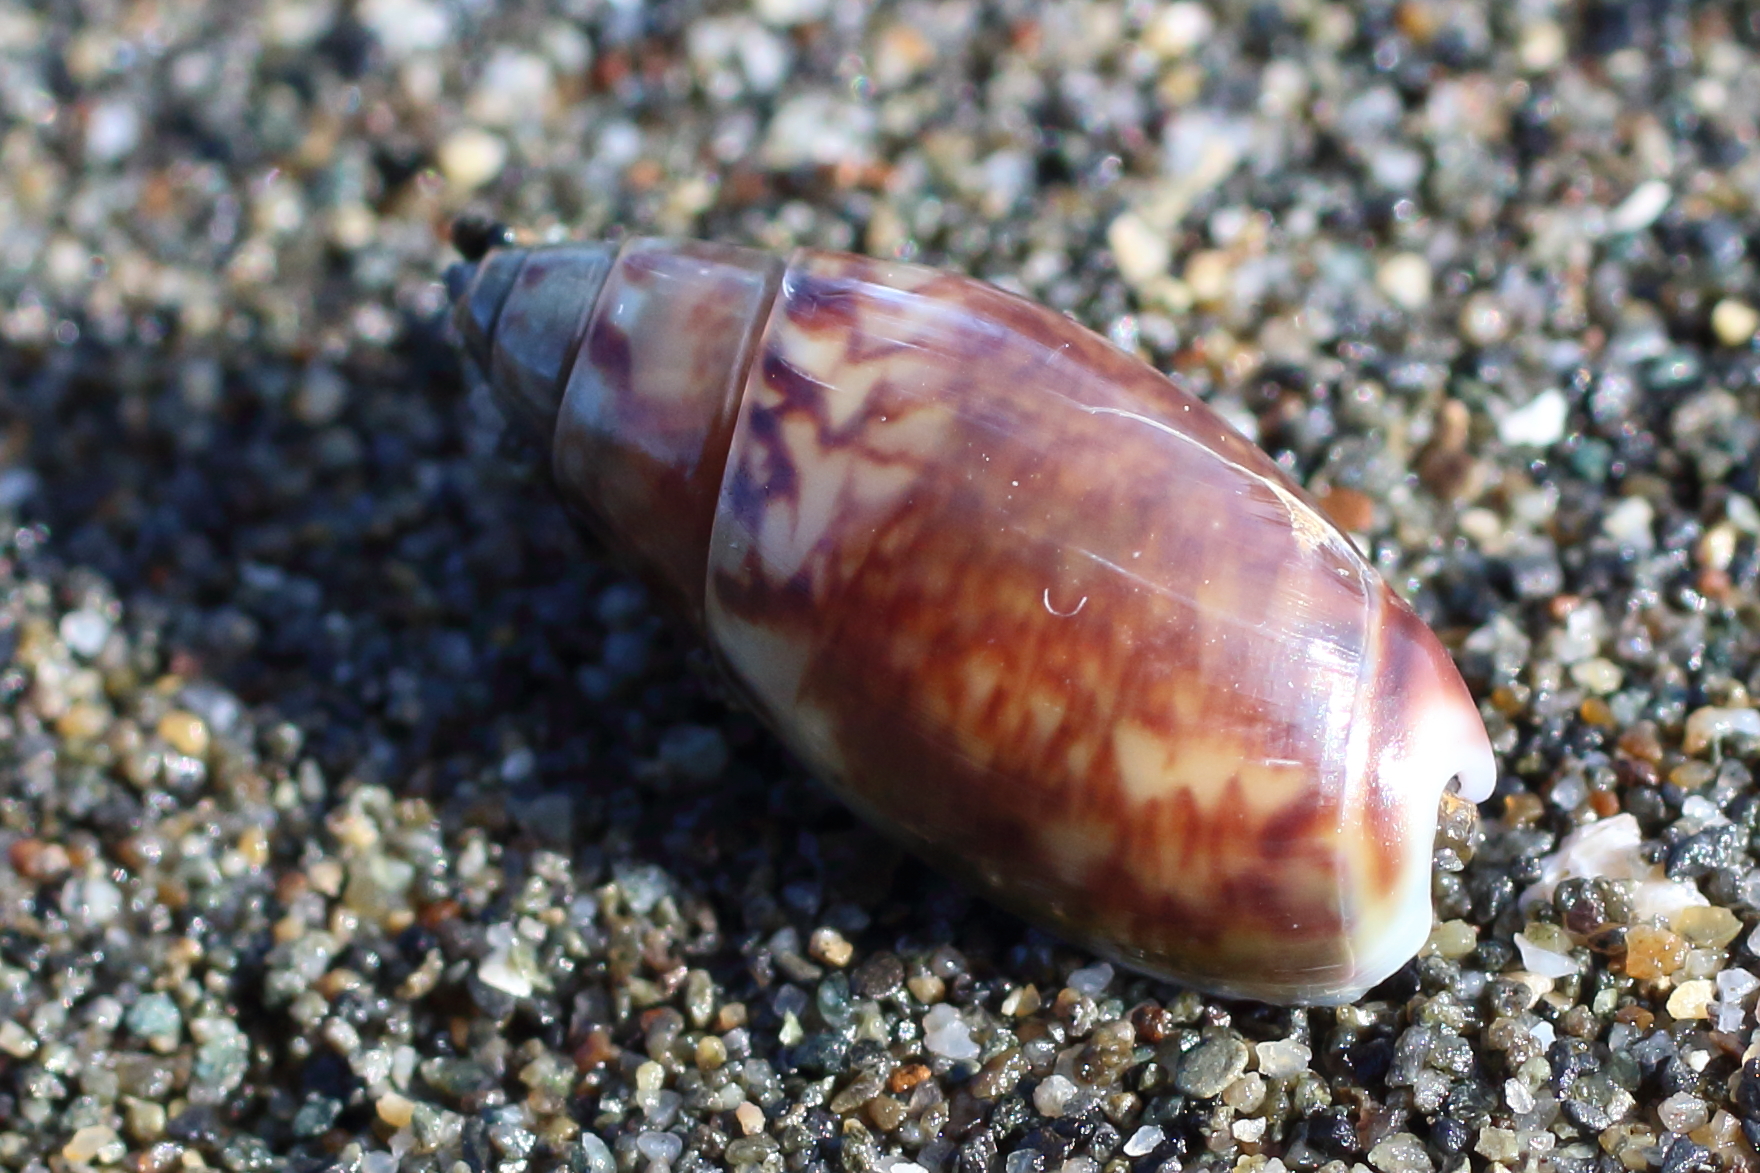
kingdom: Animalia
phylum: Mollusca
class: Gastropoda
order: Neogastropoda
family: Olividae
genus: Callianax
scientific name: Callianax alectona
